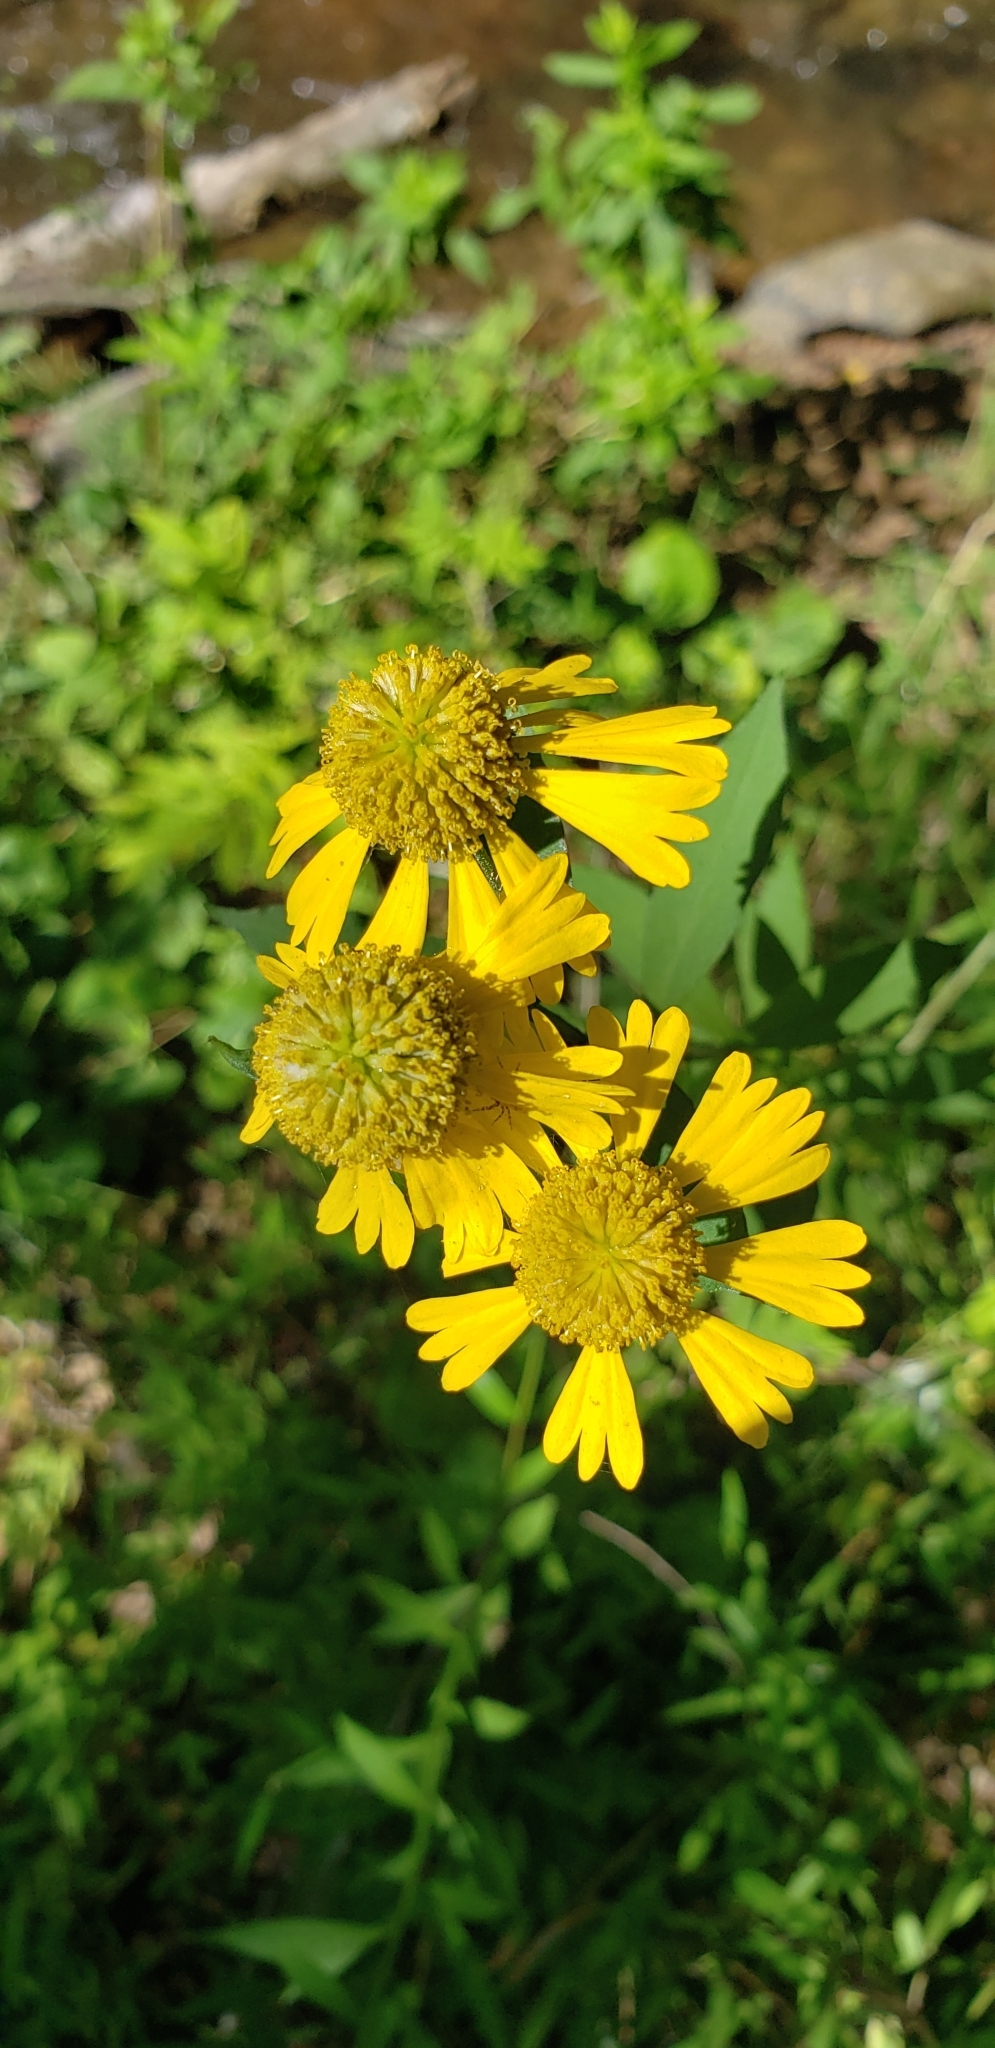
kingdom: Plantae
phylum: Tracheophyta
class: Magnoliopsida
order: Asterales
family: Asteraceae
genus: Helenium
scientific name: Helenium autumnale
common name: Sneezeweed
